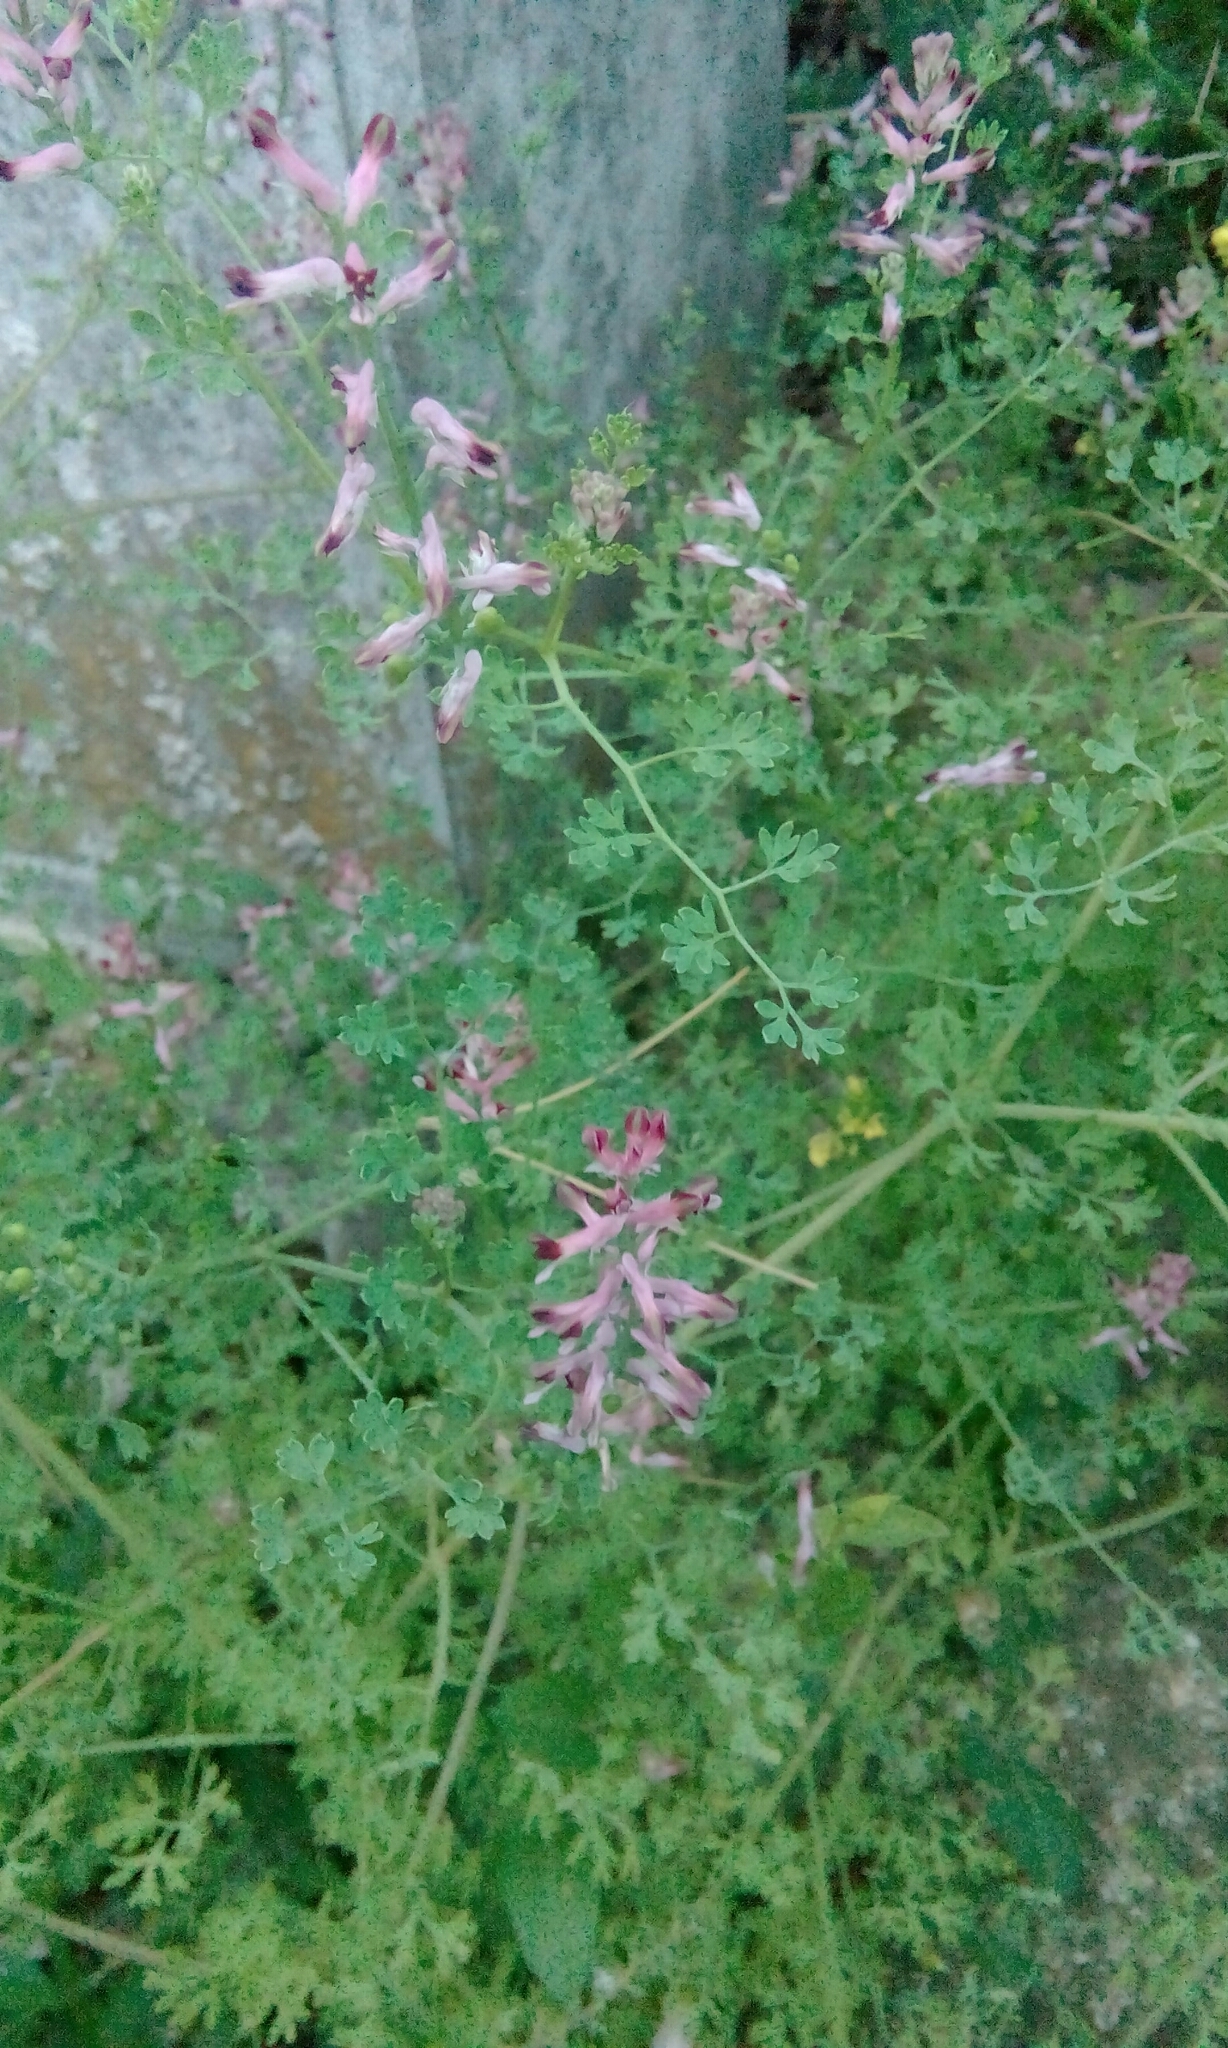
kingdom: Plantae
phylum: Tracheophyta
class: Magnoliopsida
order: Ranunculales
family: Papaveraceae
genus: Fumaria
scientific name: Fumaria officinalis
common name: Common fumitory
